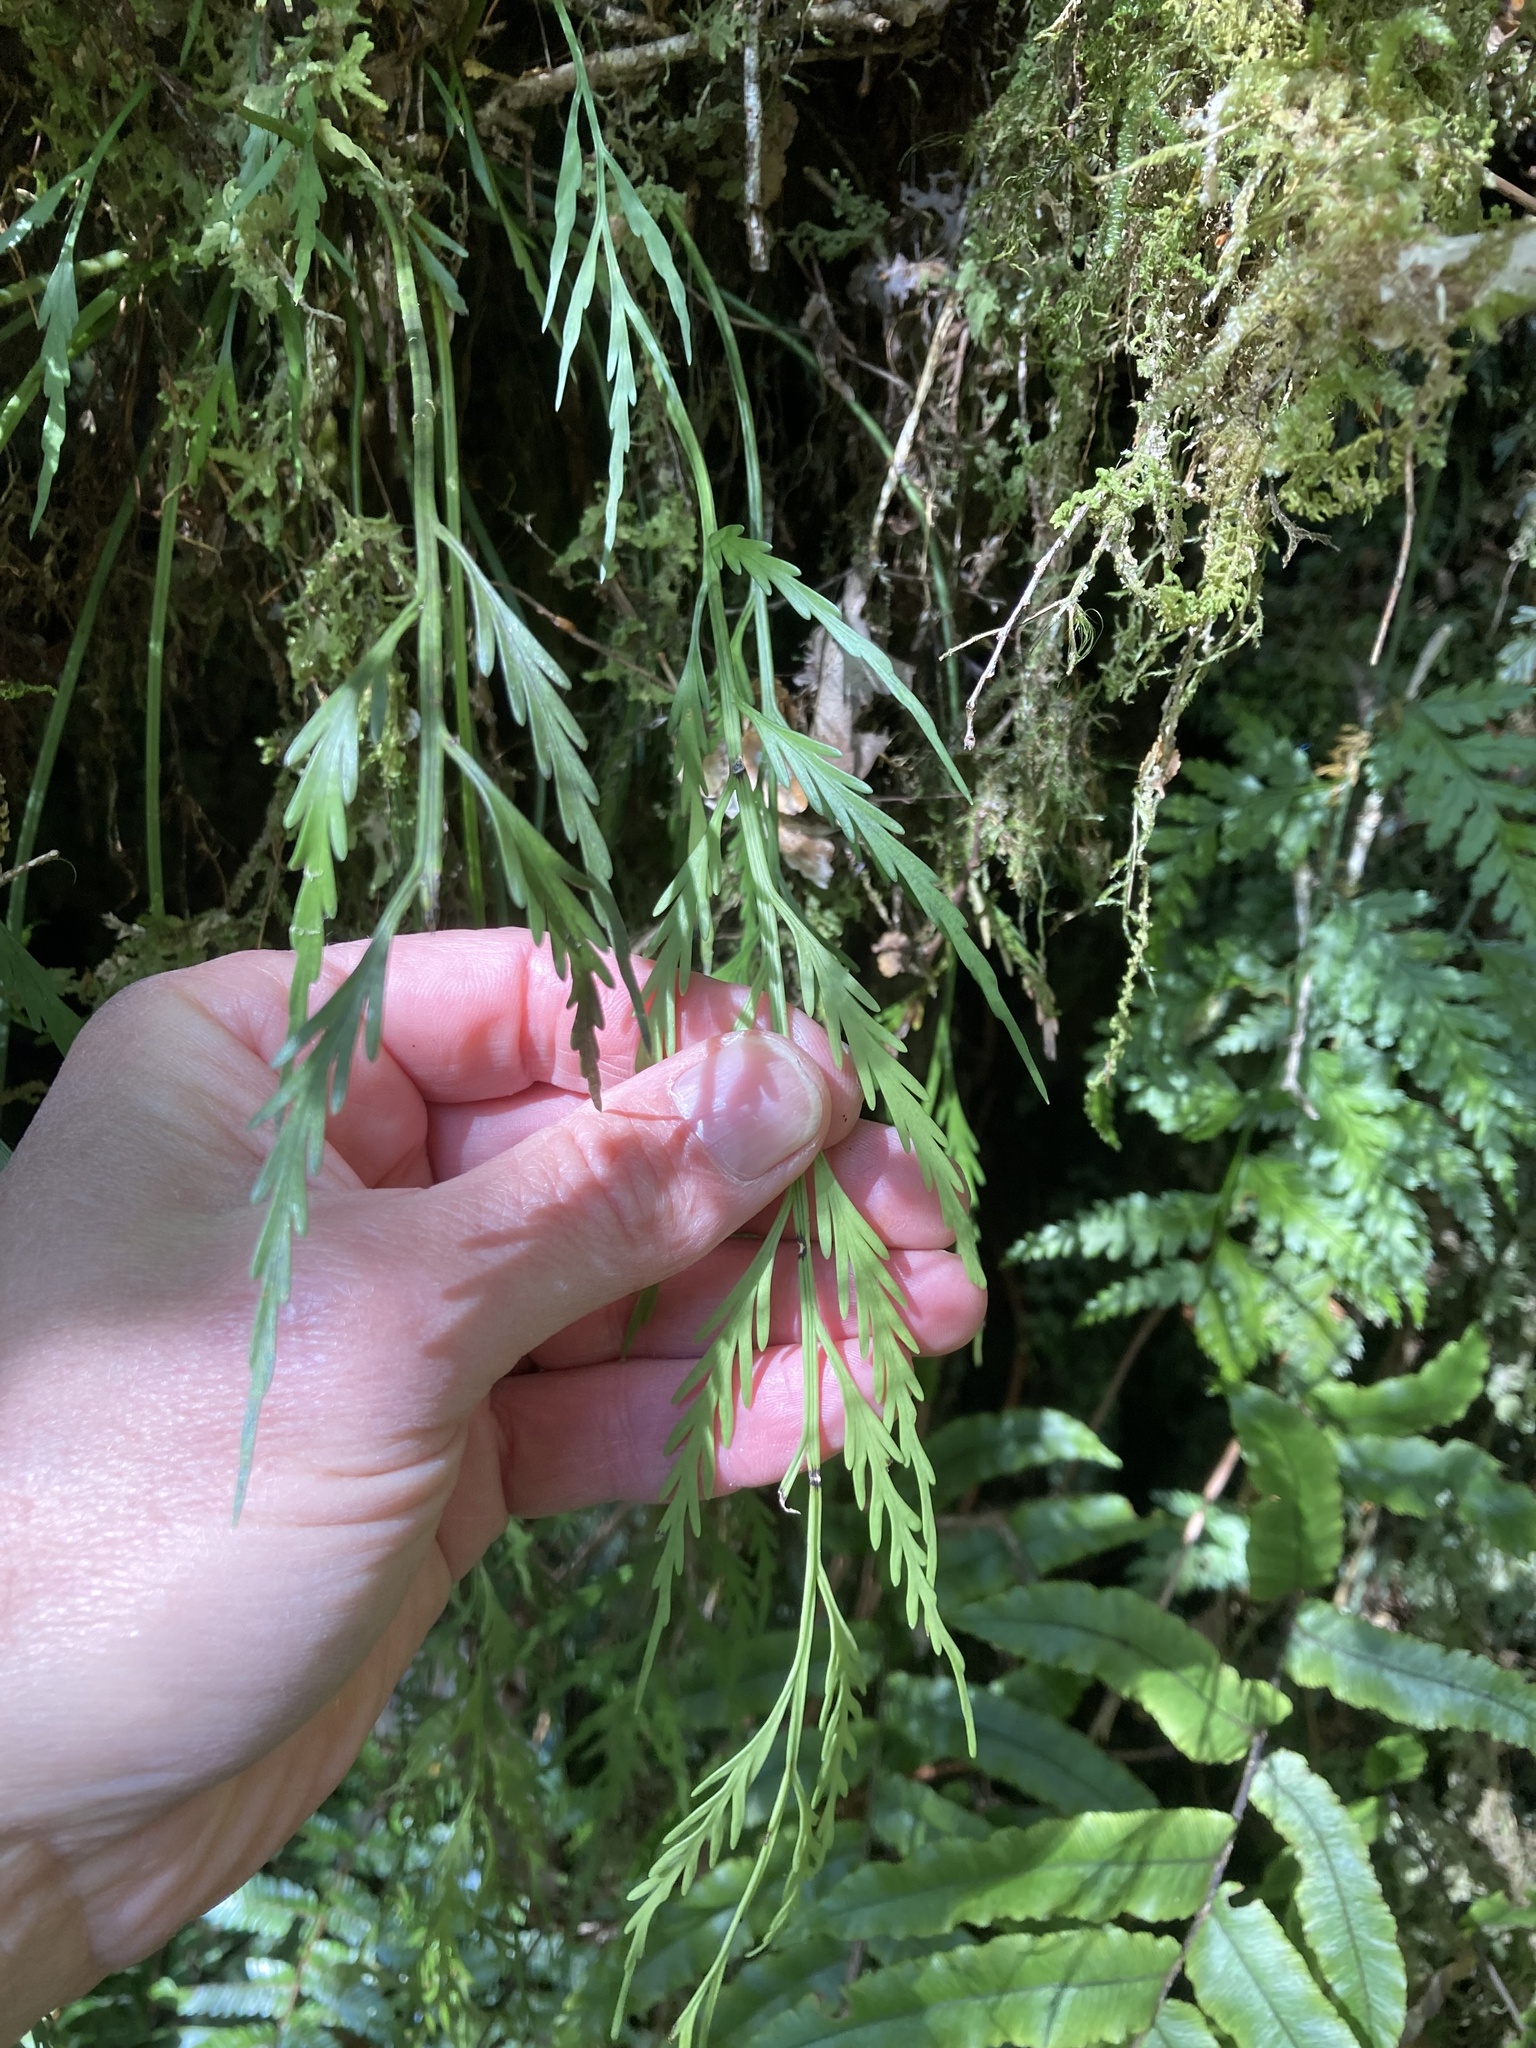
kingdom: Plantae
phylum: Tracheophyta
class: Polypodiopsida
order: Polypodiales
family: Aspleniaceae
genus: Asplenium
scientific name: Asplenium flaccidum
